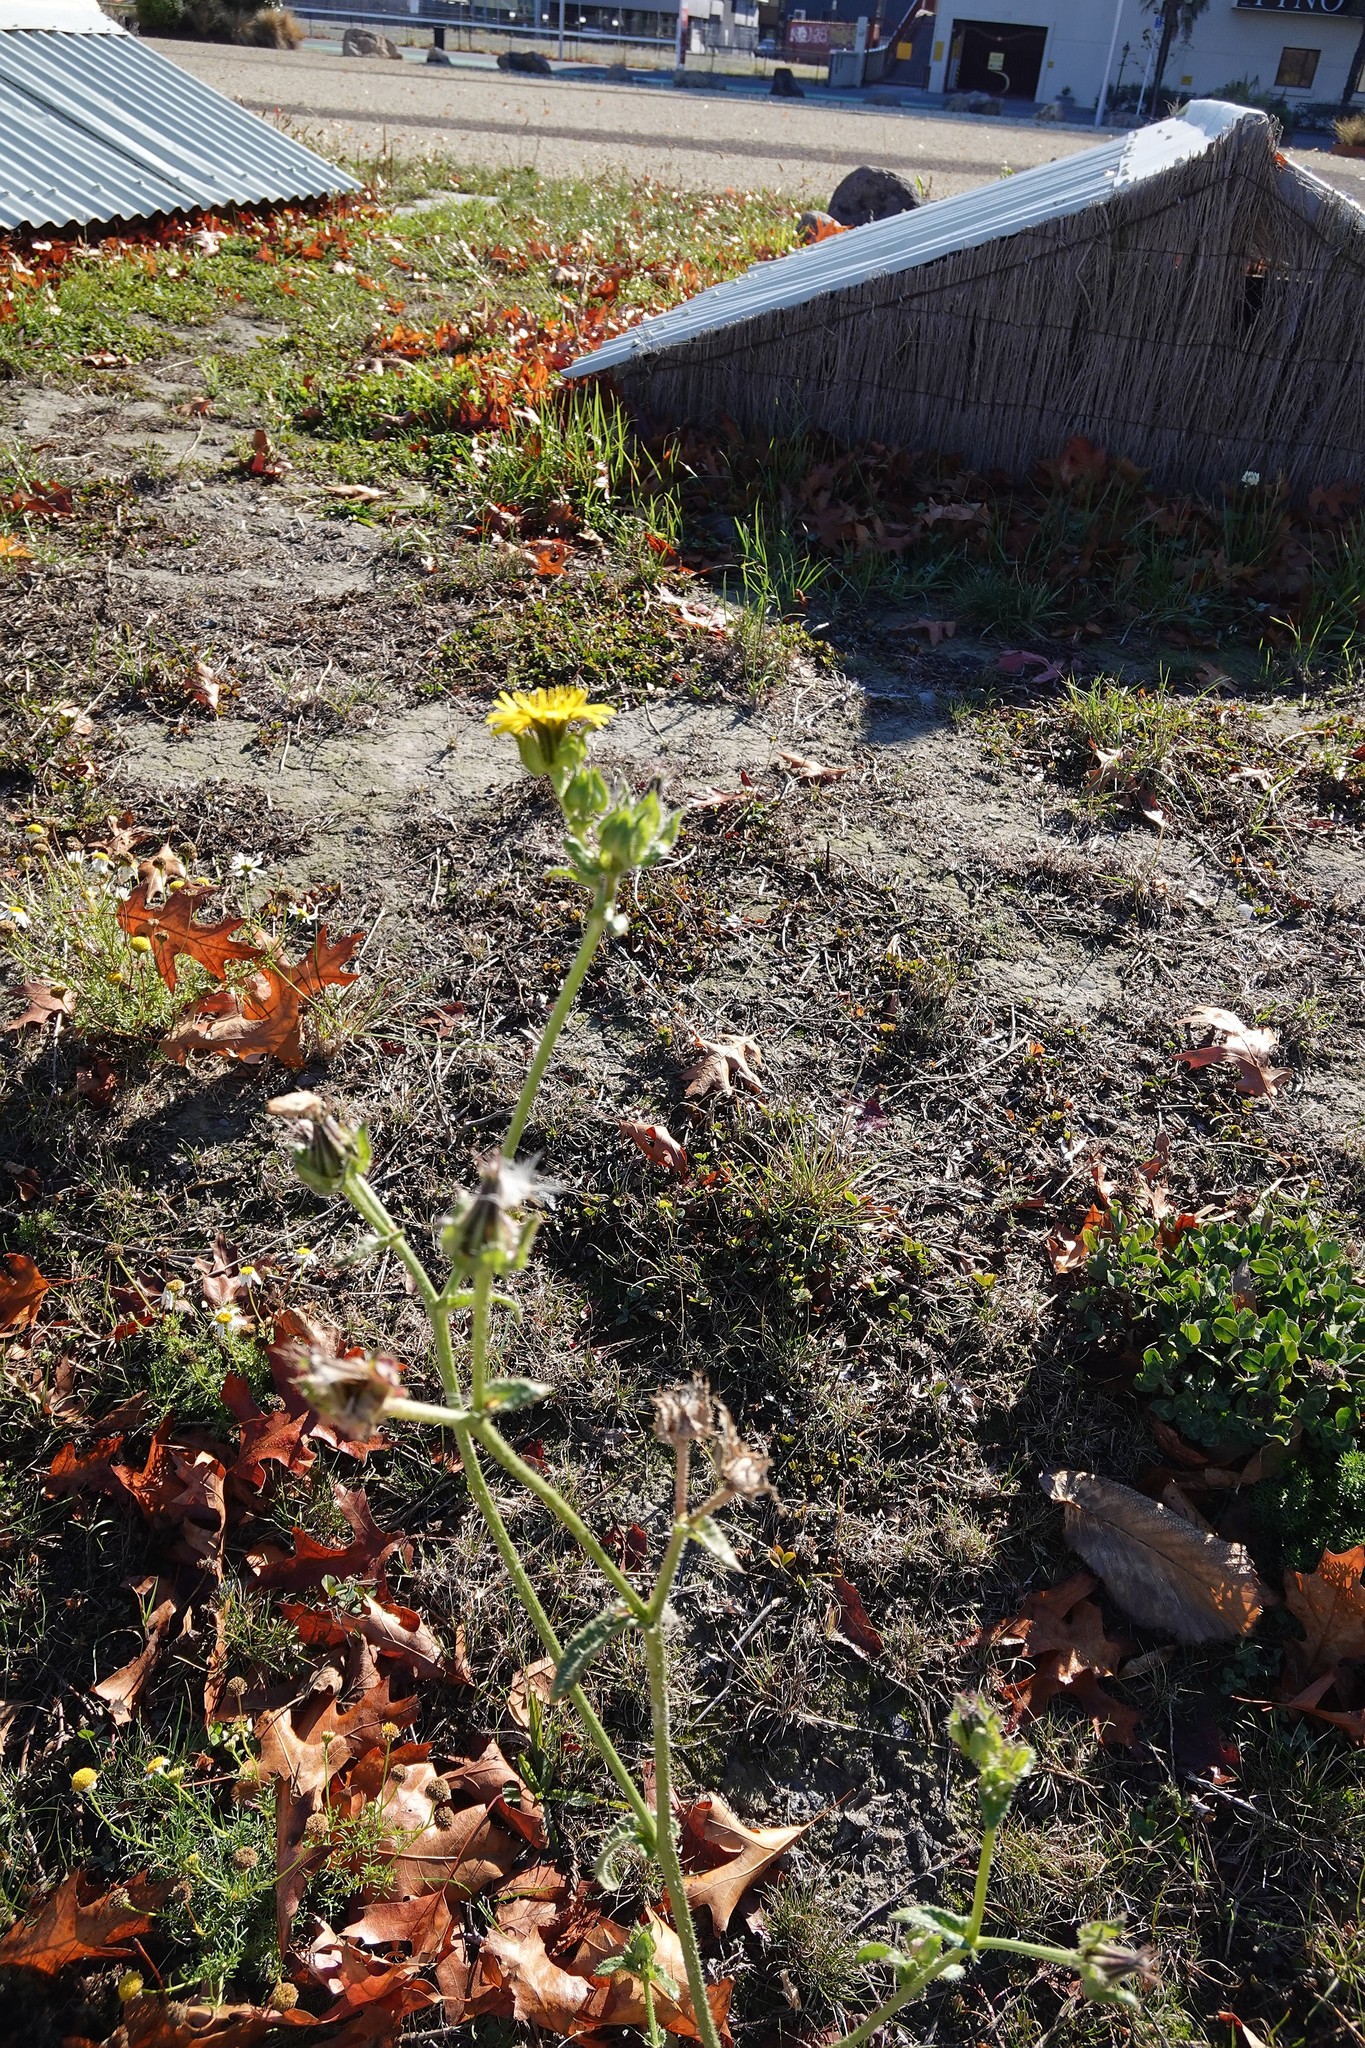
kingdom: Plantae
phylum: Tracheophyta
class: Magnoliopsida
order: Asterales
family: Asteraceae
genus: Helminthotheca
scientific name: Helminthotheca echioides
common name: Ox-tongue
